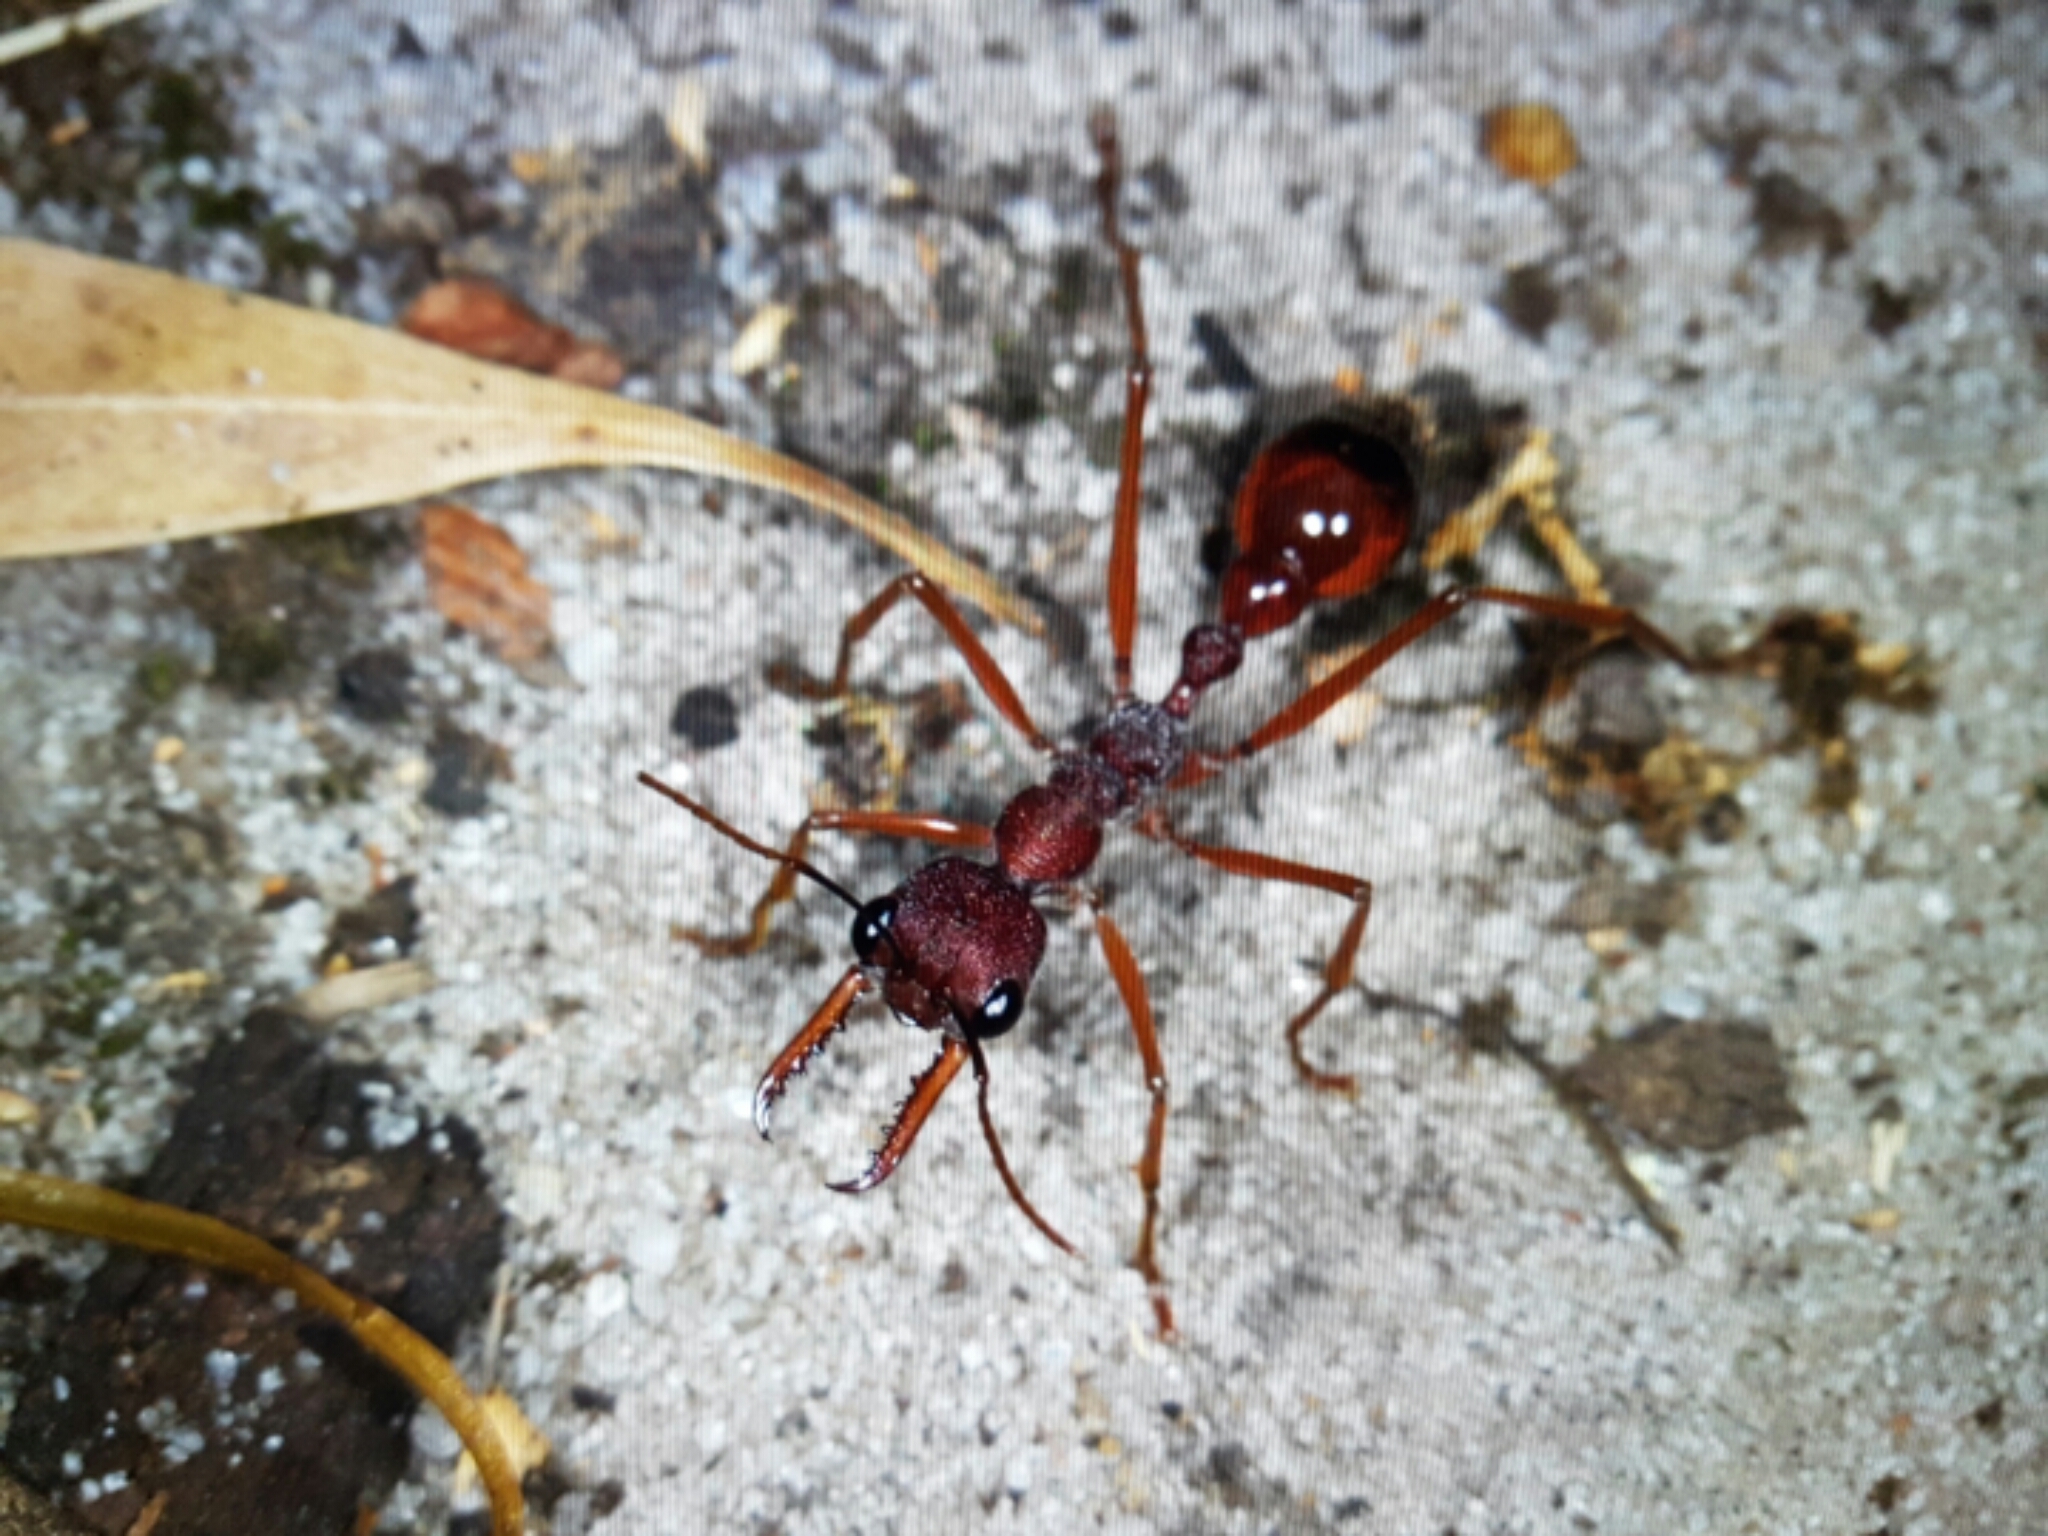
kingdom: Animalia
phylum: Arthropoda
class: Insecta
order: Hymenoptera
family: Formicidae
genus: Myrmecia
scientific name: Myrmecia nigriscapa
